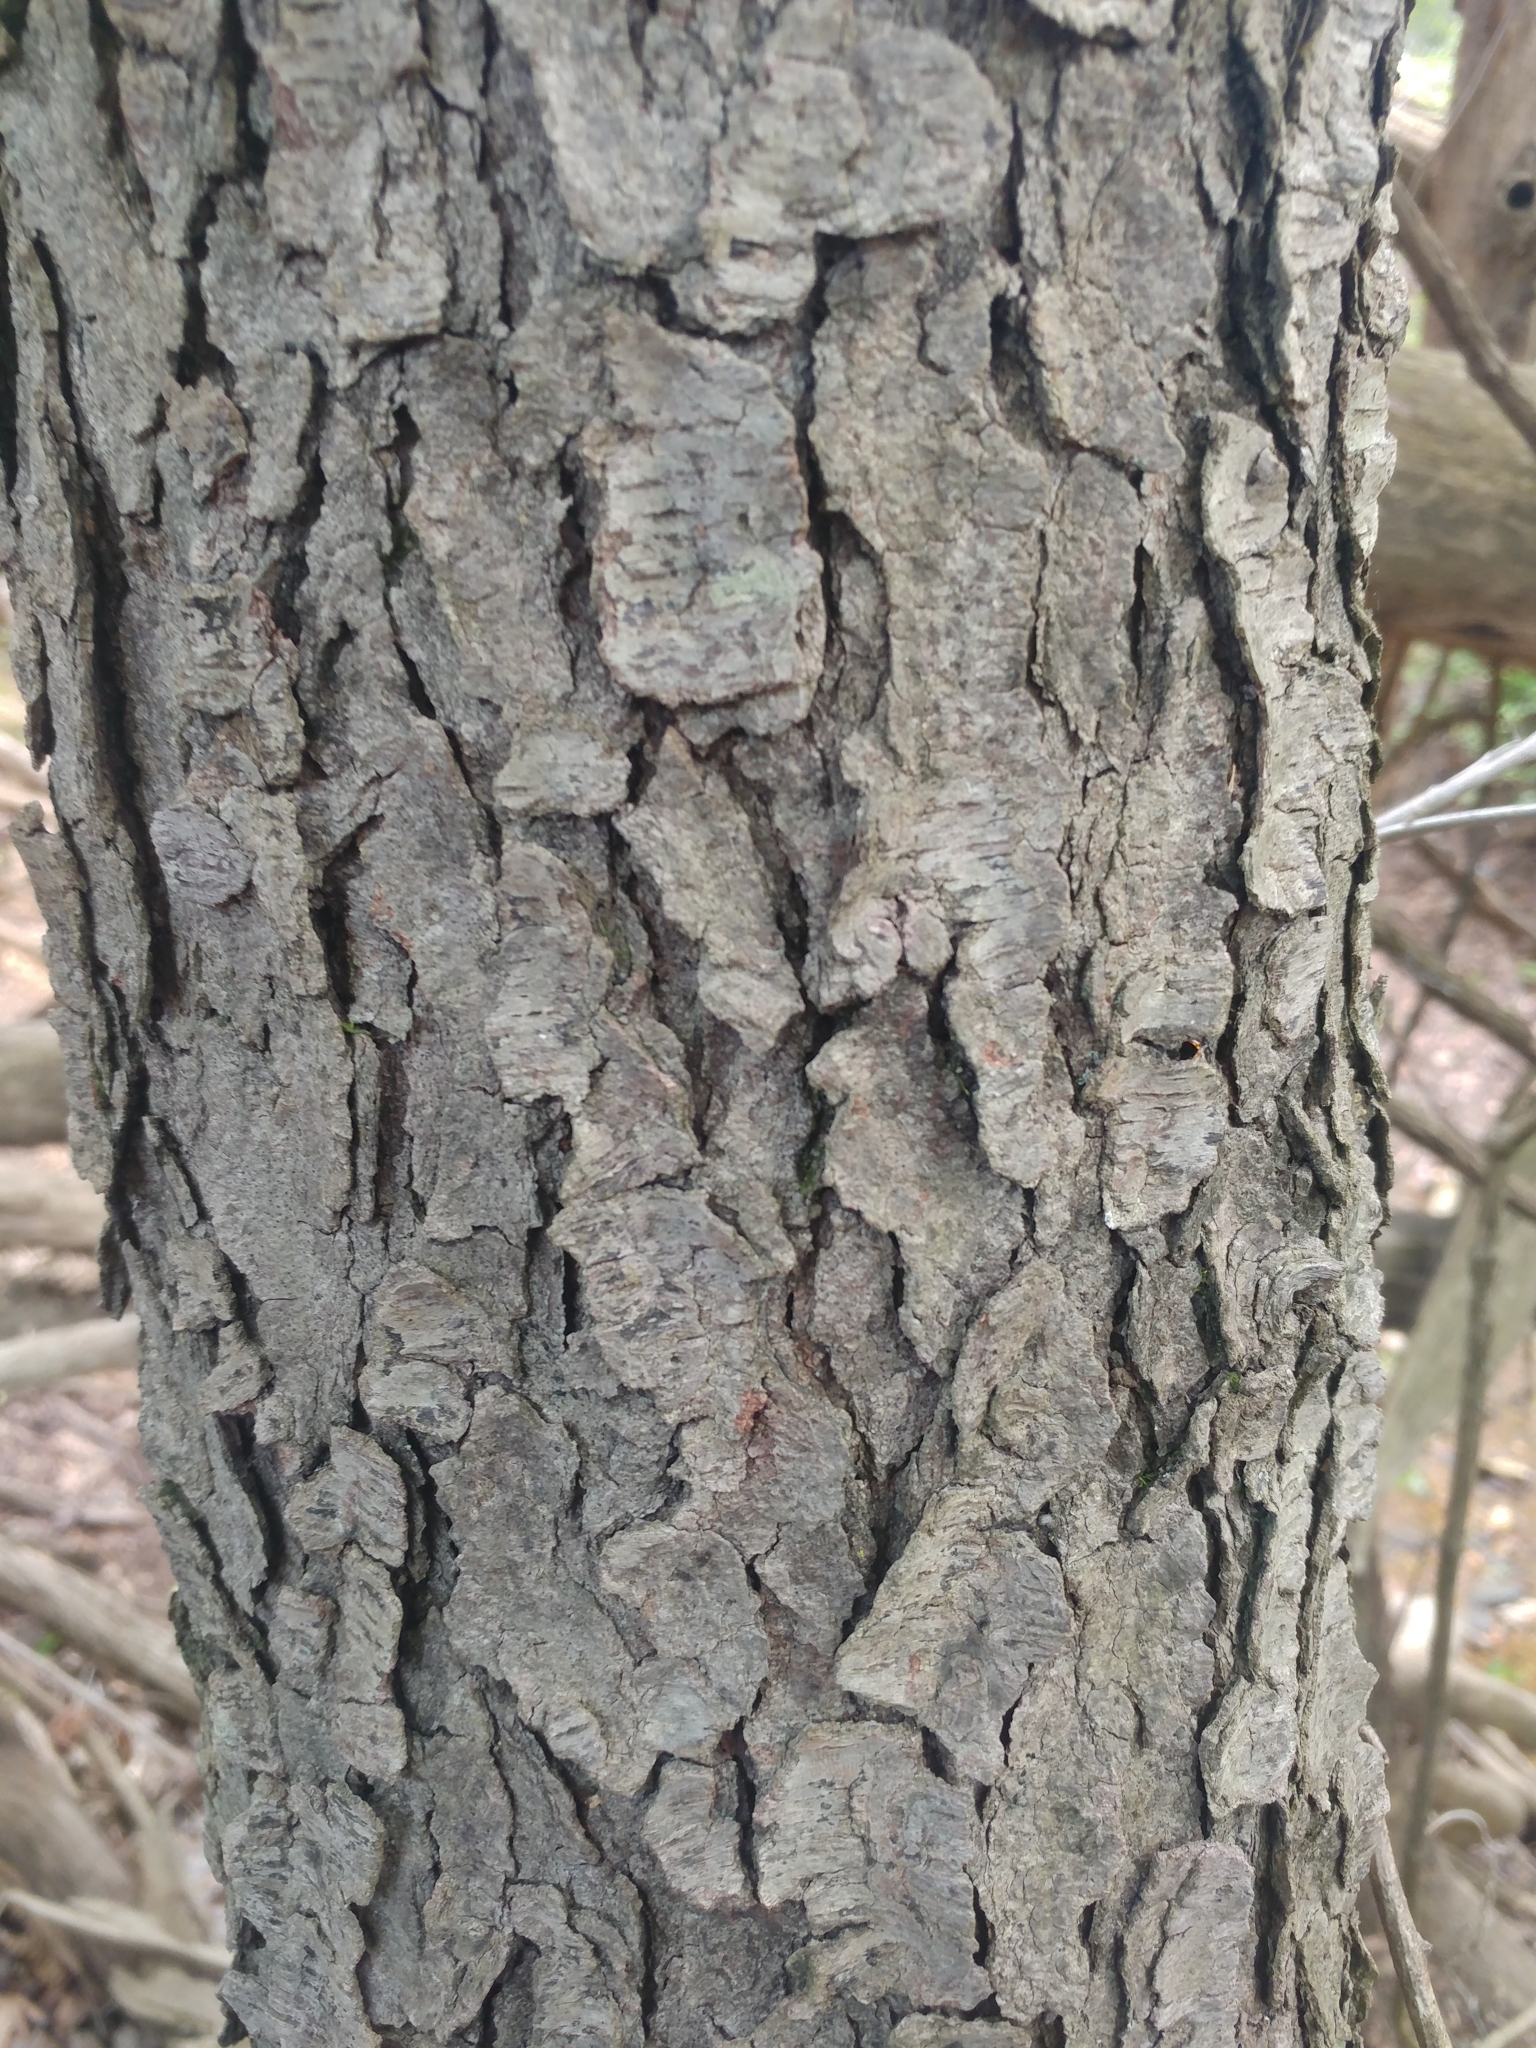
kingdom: Plantae
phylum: Tracheophyta
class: Magnoliopsida
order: Rosales
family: Rosaceae
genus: Prunus
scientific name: Prunus serotina
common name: Black cherry
